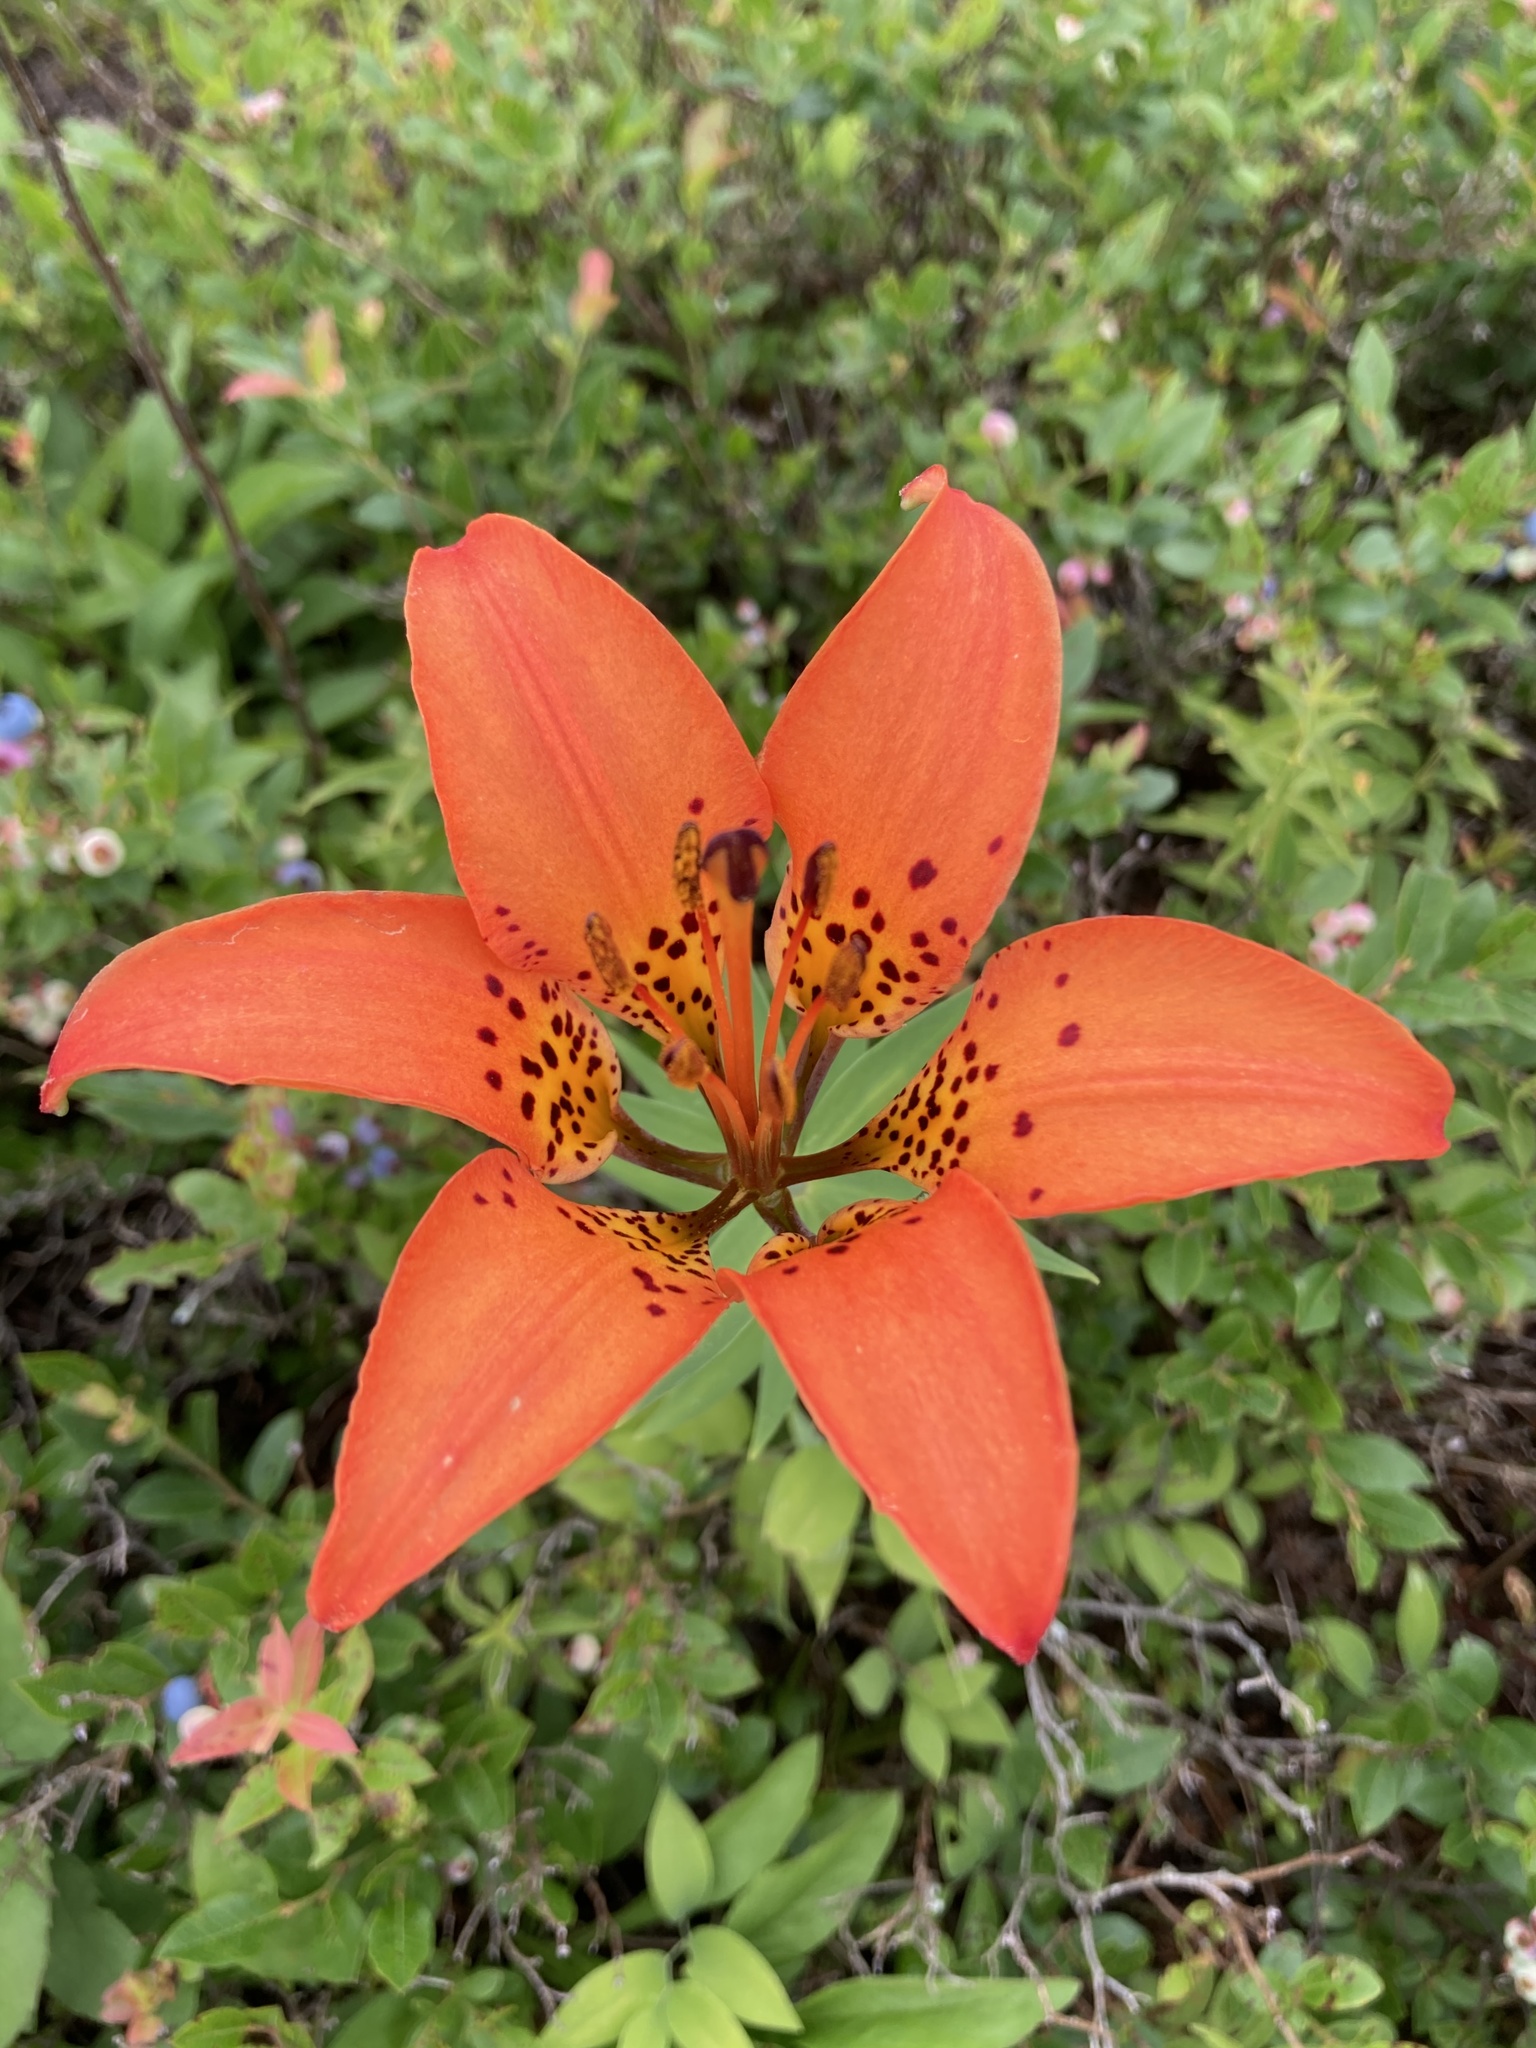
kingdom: Plantae
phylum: Tracheophyta
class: Liliopsida
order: Liliales
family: Liliaceae
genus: Lilium
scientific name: Lilium philadelphicum
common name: Red lily
